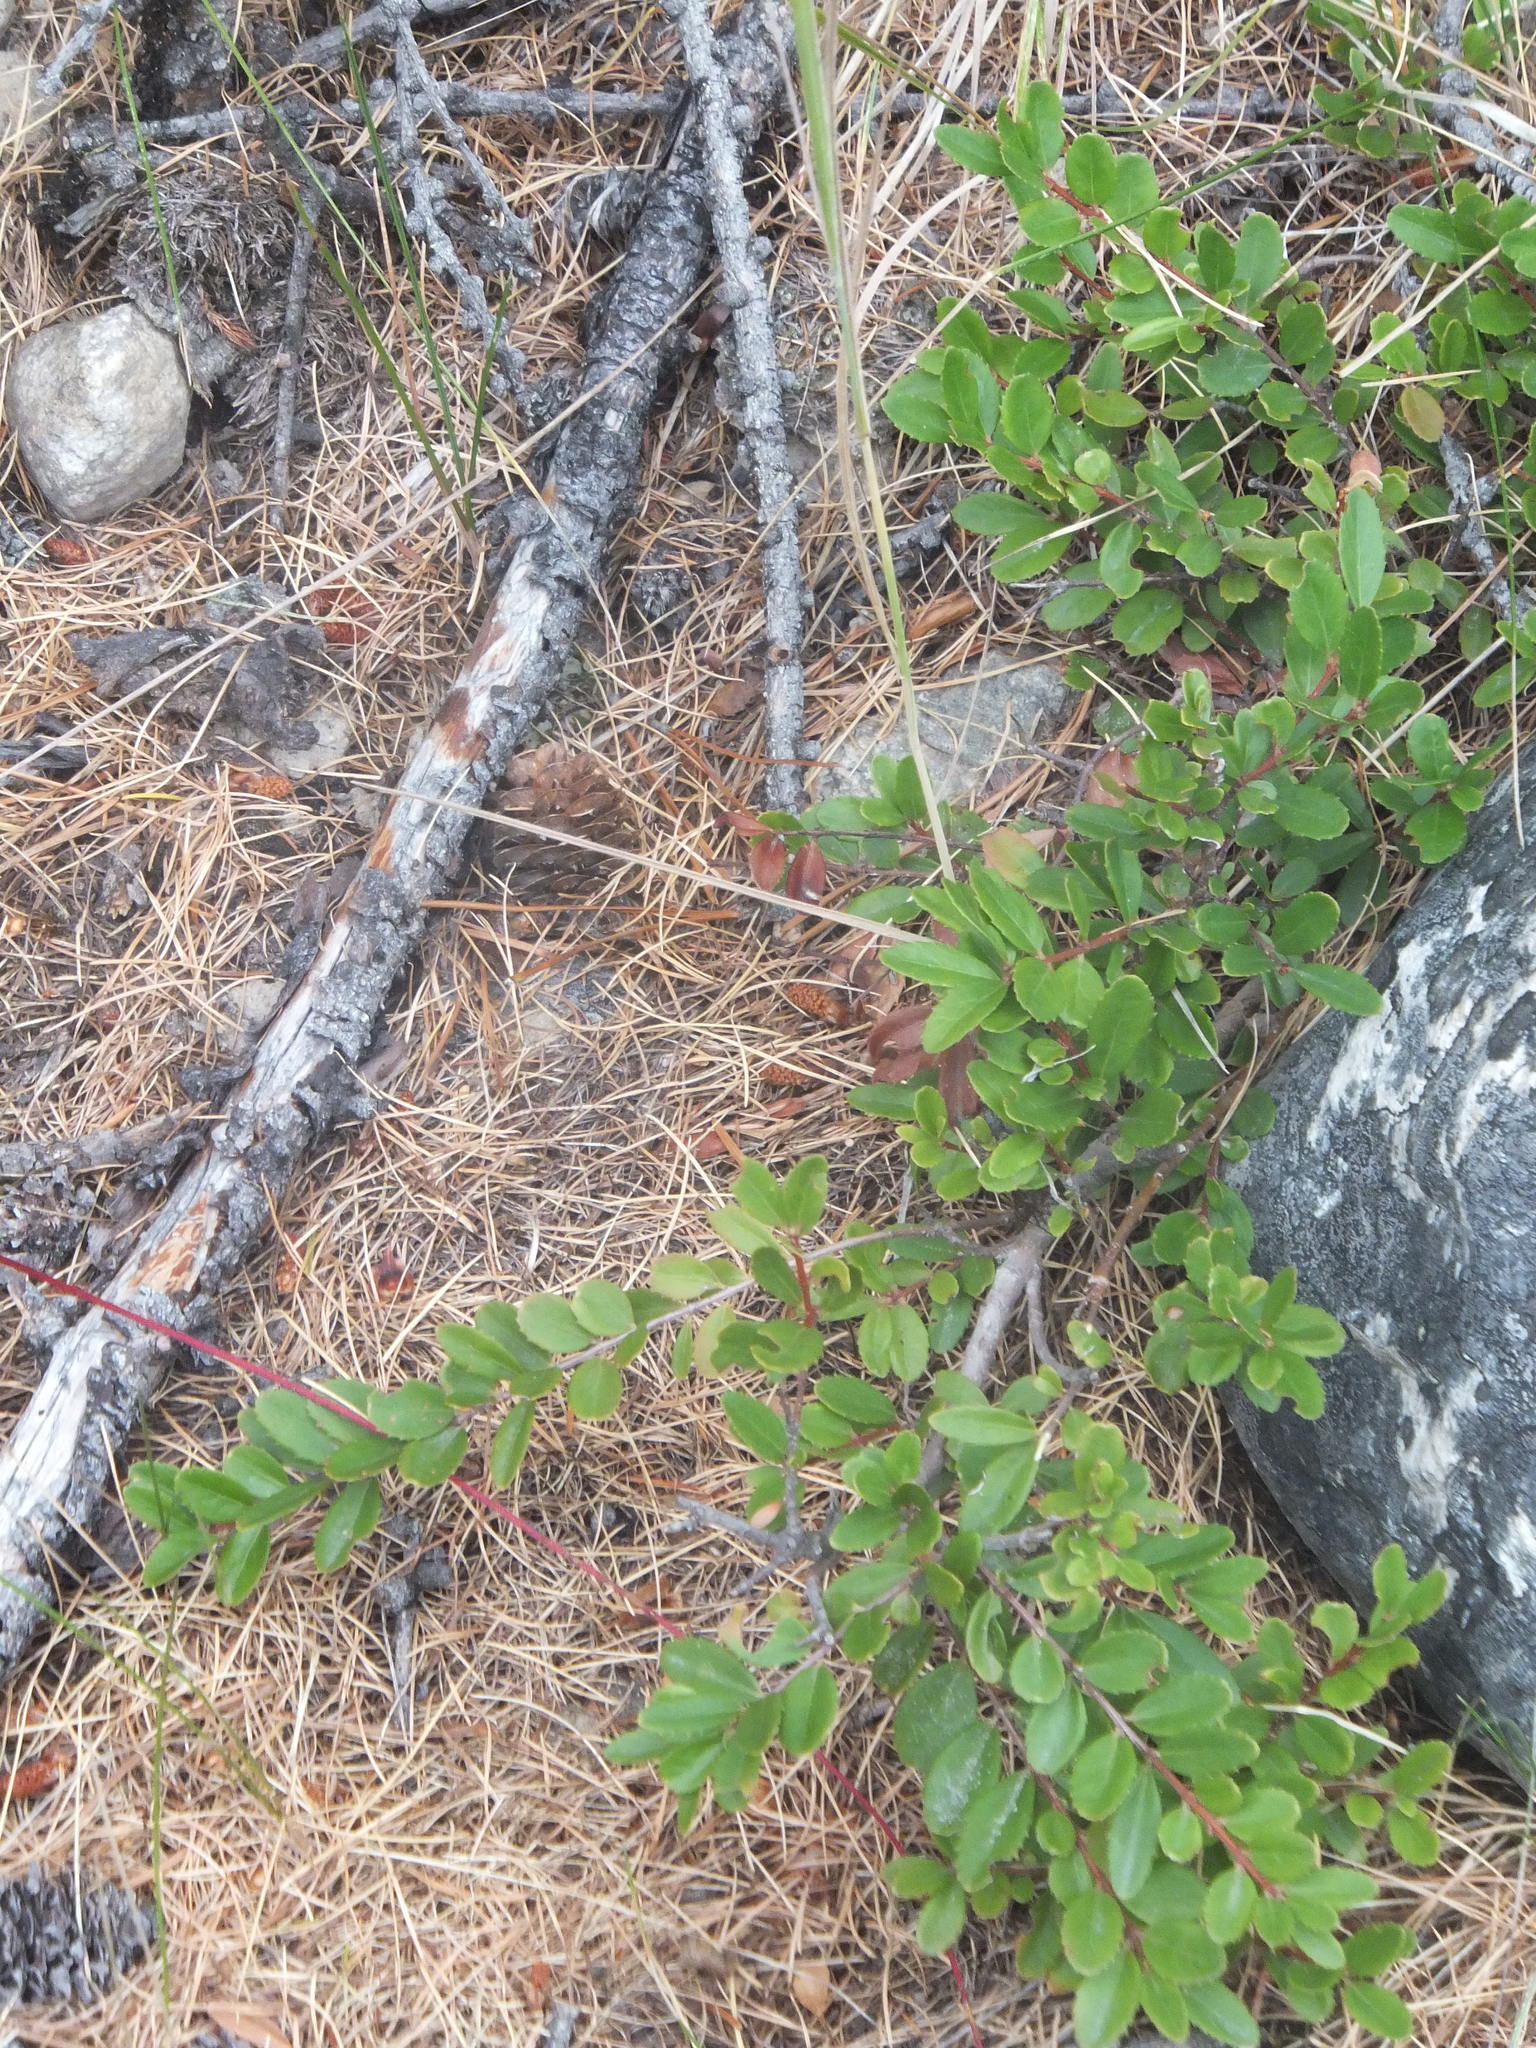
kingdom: Plantae
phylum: Tracheophyta
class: Magnoliopsida
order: Celastrales
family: Celastraceae
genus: Paxistima
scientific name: Paxistima myrsinites
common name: Mountain-lover
